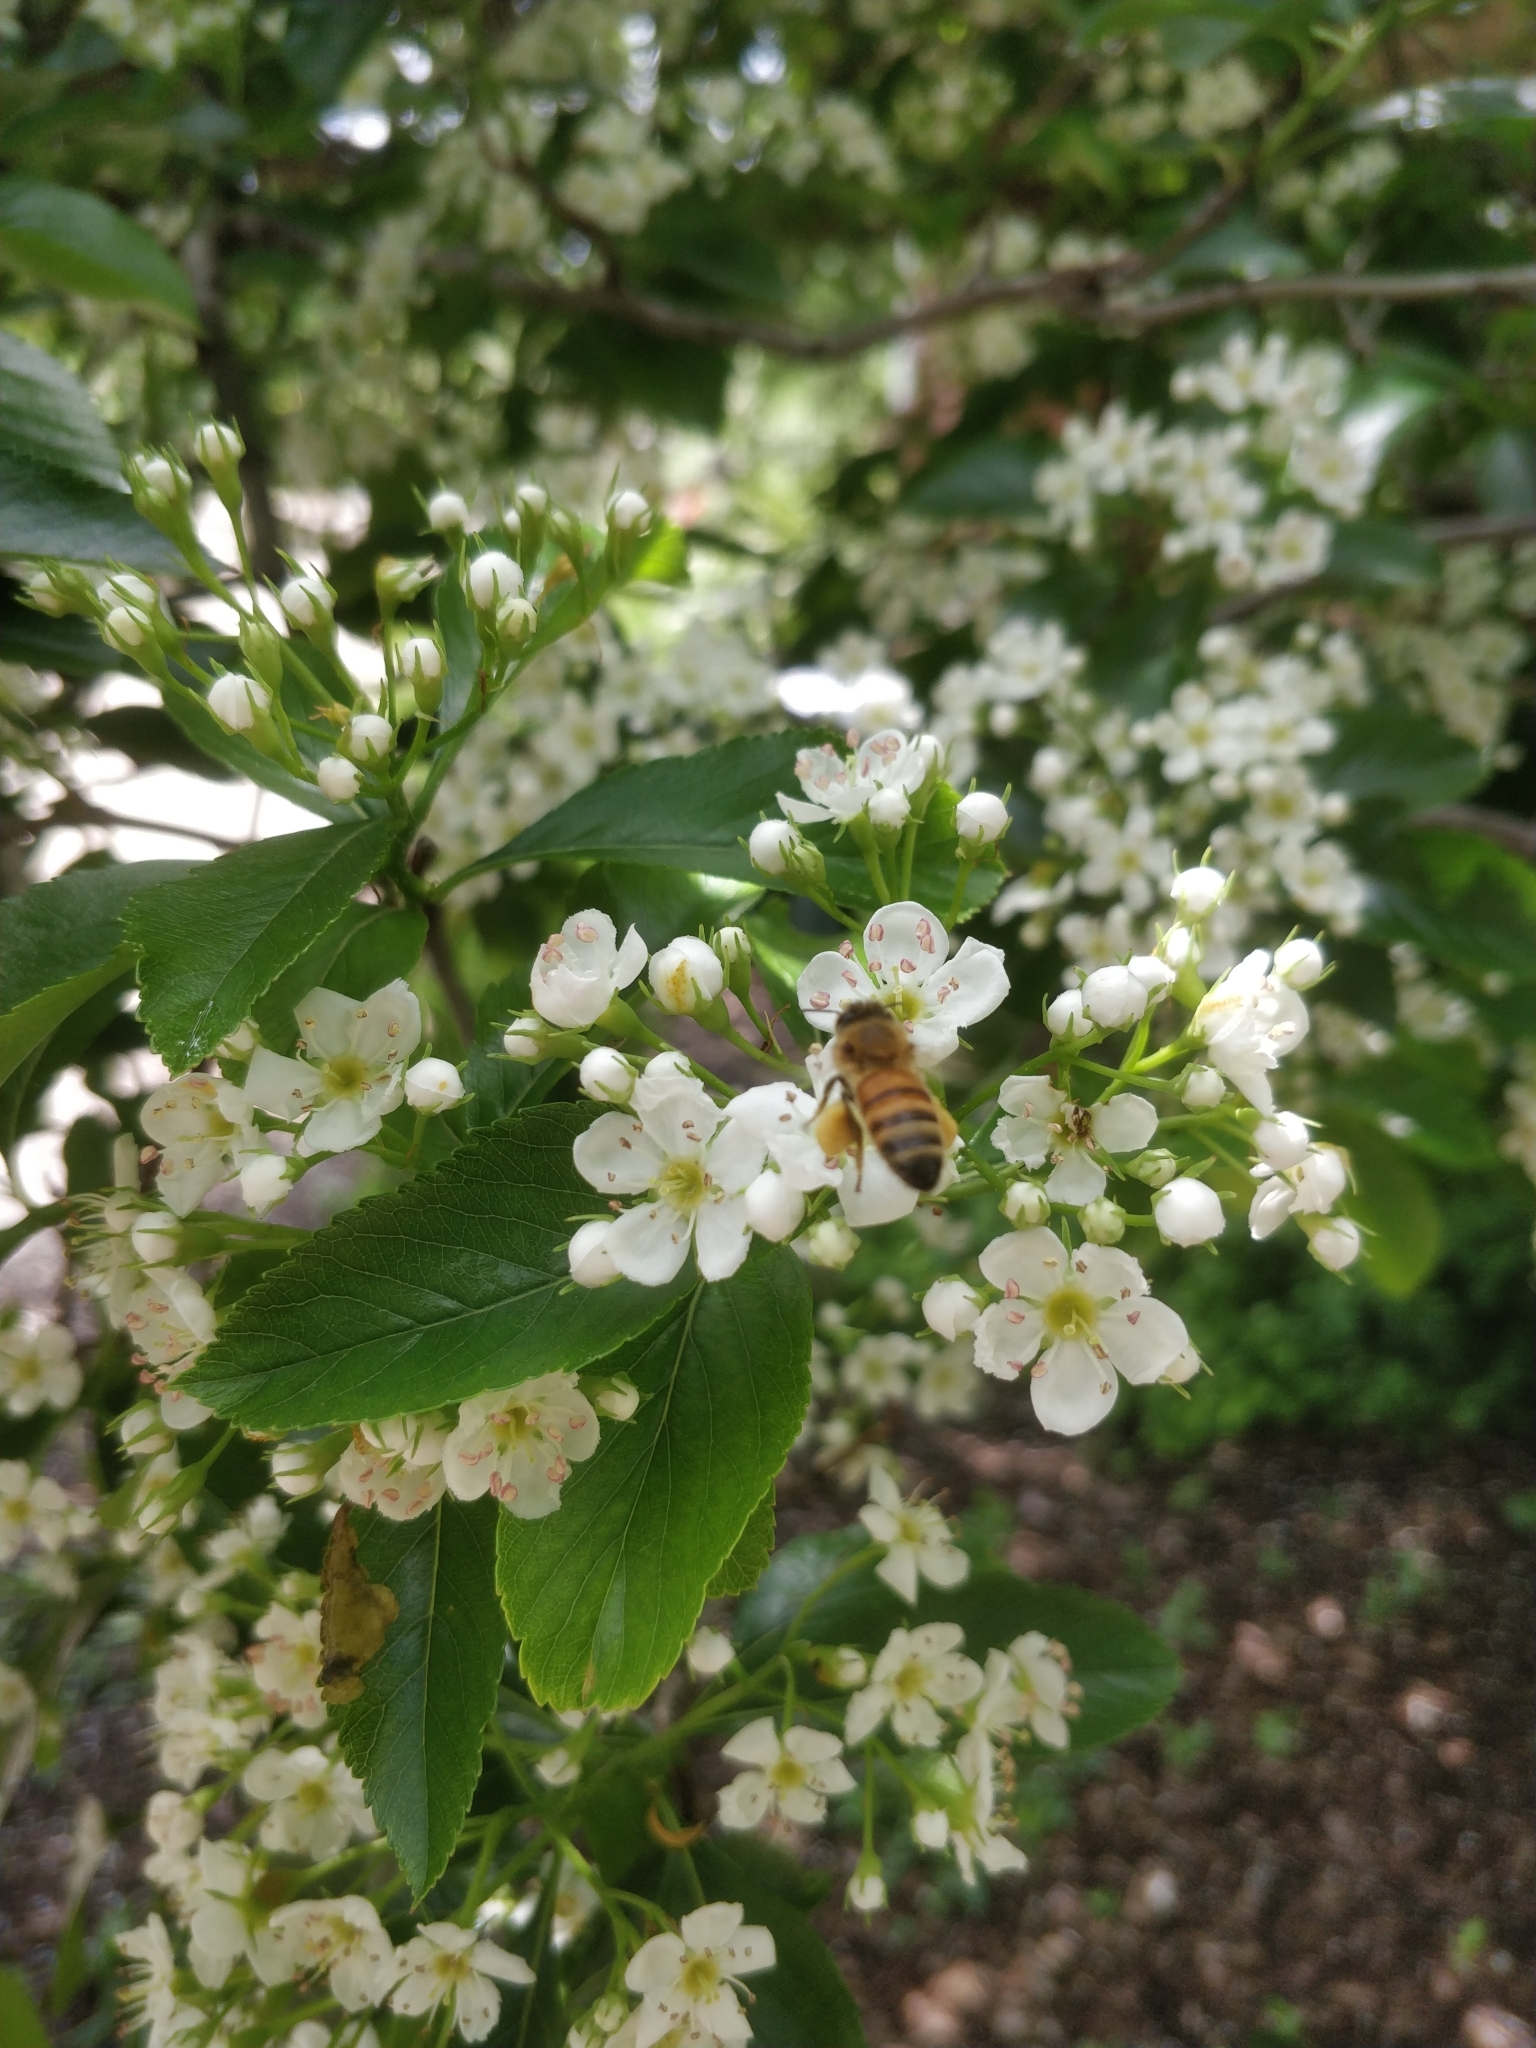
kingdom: Animalia
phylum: Arthropoda
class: Insecta
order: Hymenoptera
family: Apidae
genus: Apis
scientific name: Apis mellifera
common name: Honey bee
